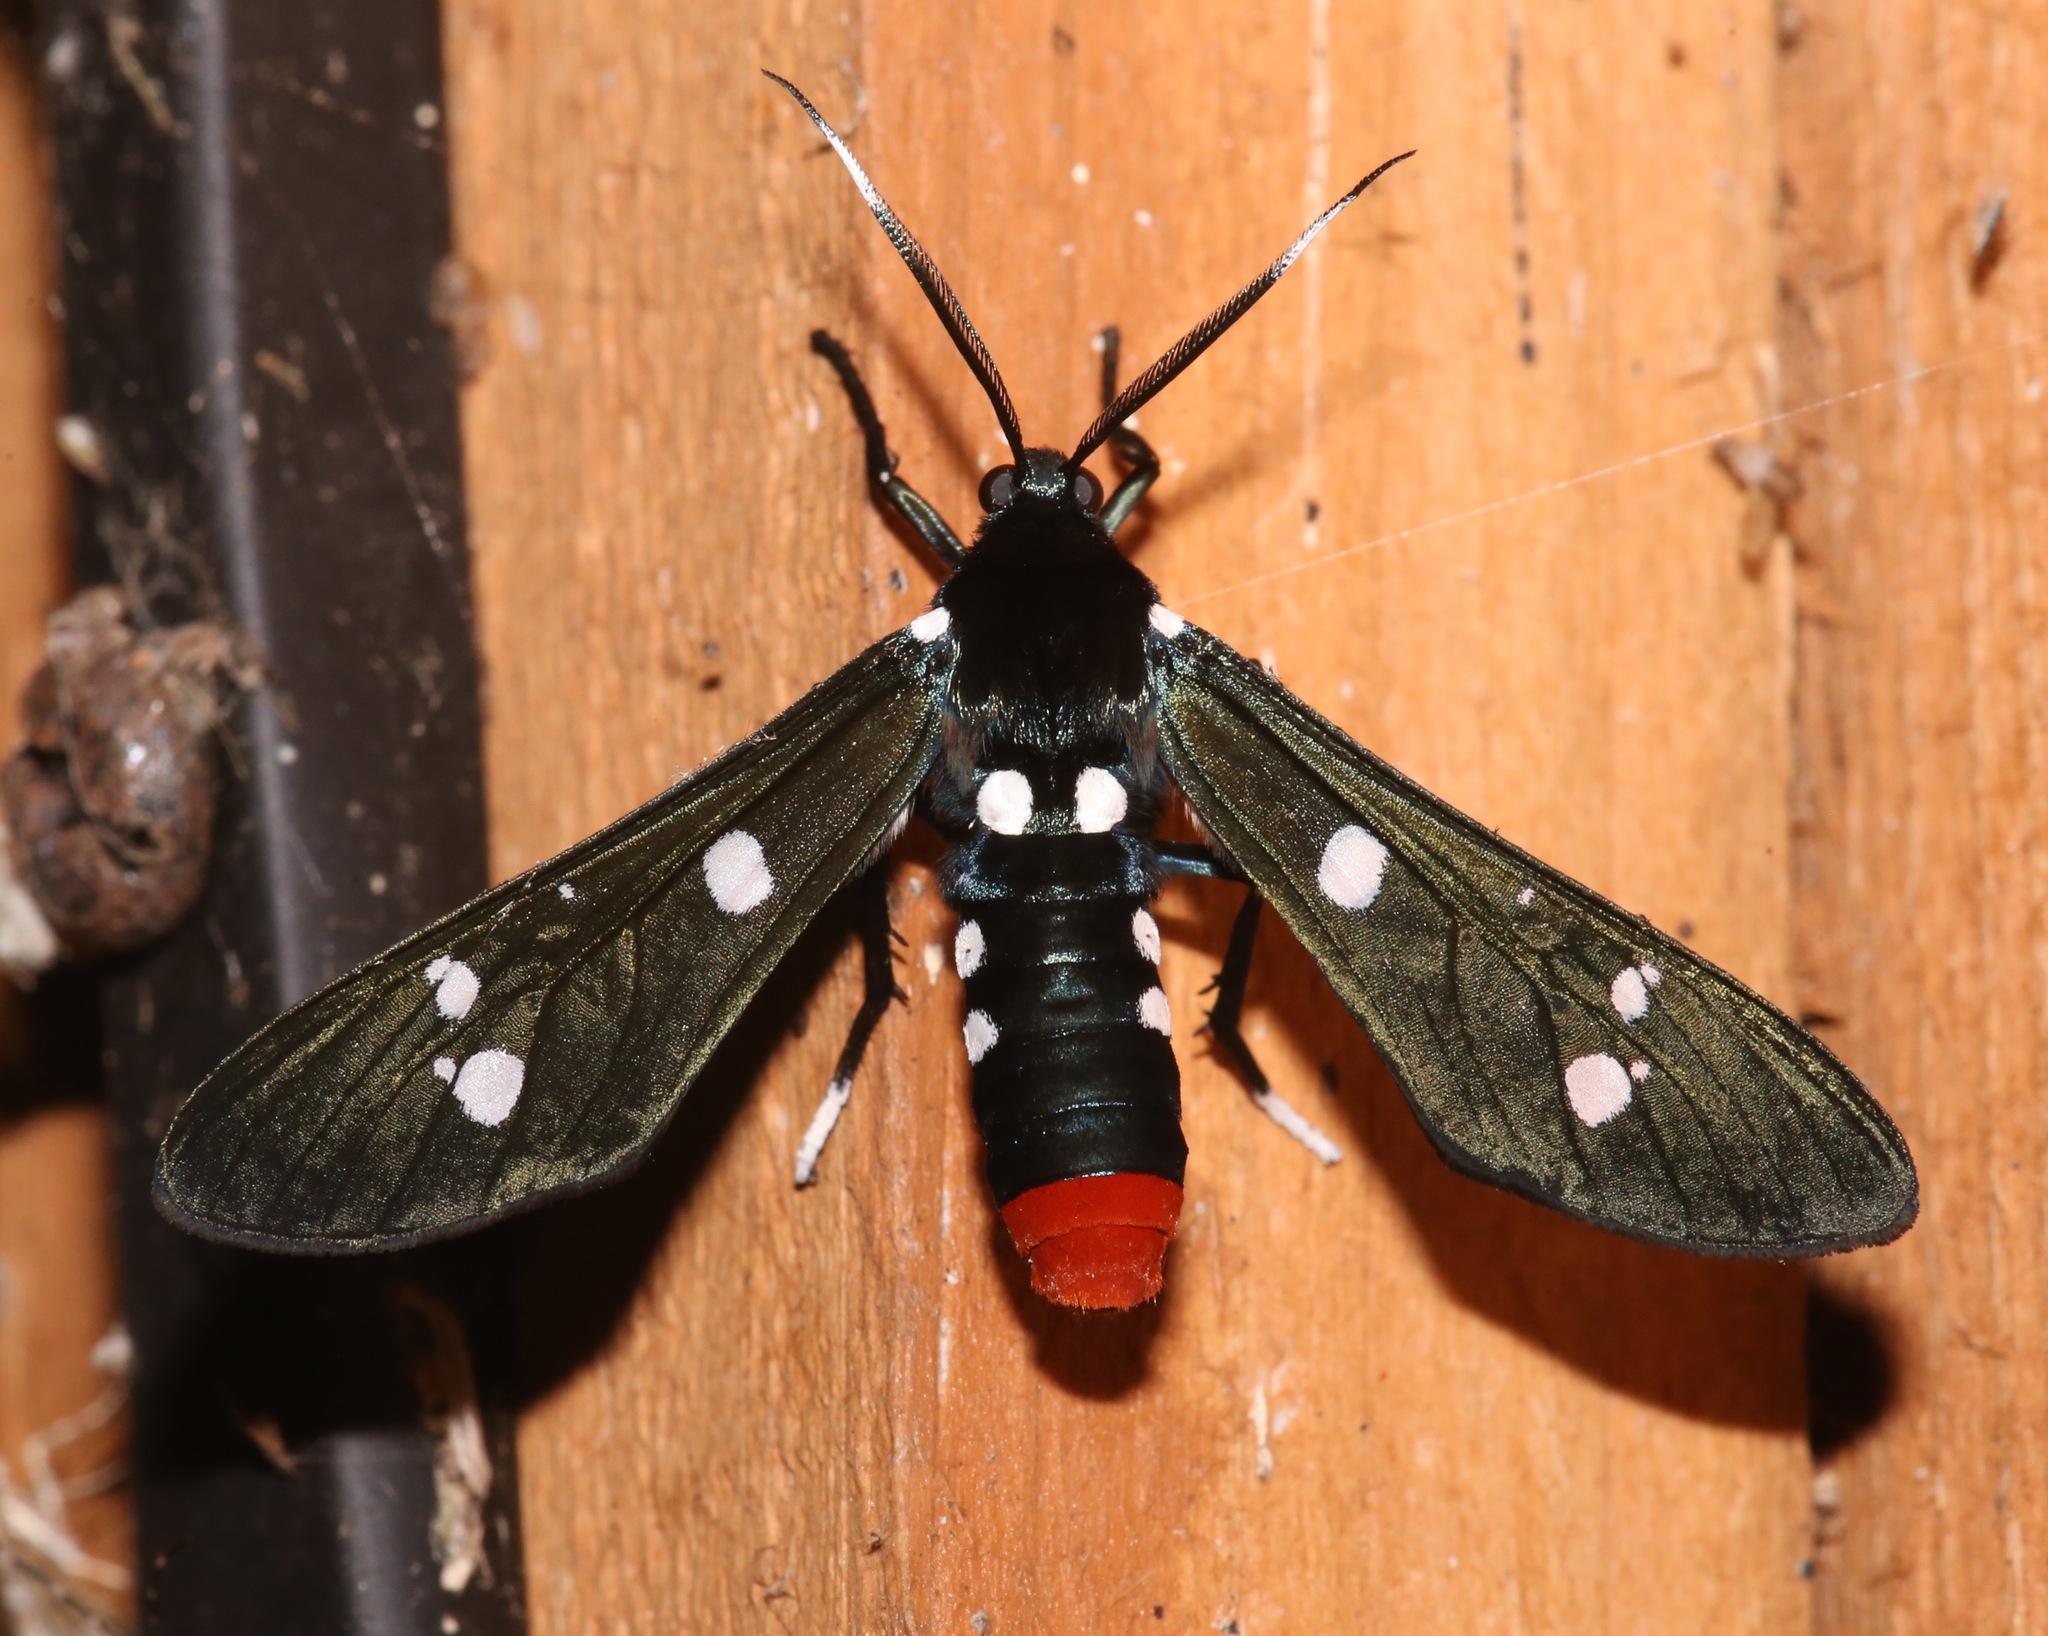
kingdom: Animalia
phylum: Arthropoda
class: Insecta
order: Lepidoptera
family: Erebidae
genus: Syntomeida
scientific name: Syntomeida epilais
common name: Polka-dot wasp moth
